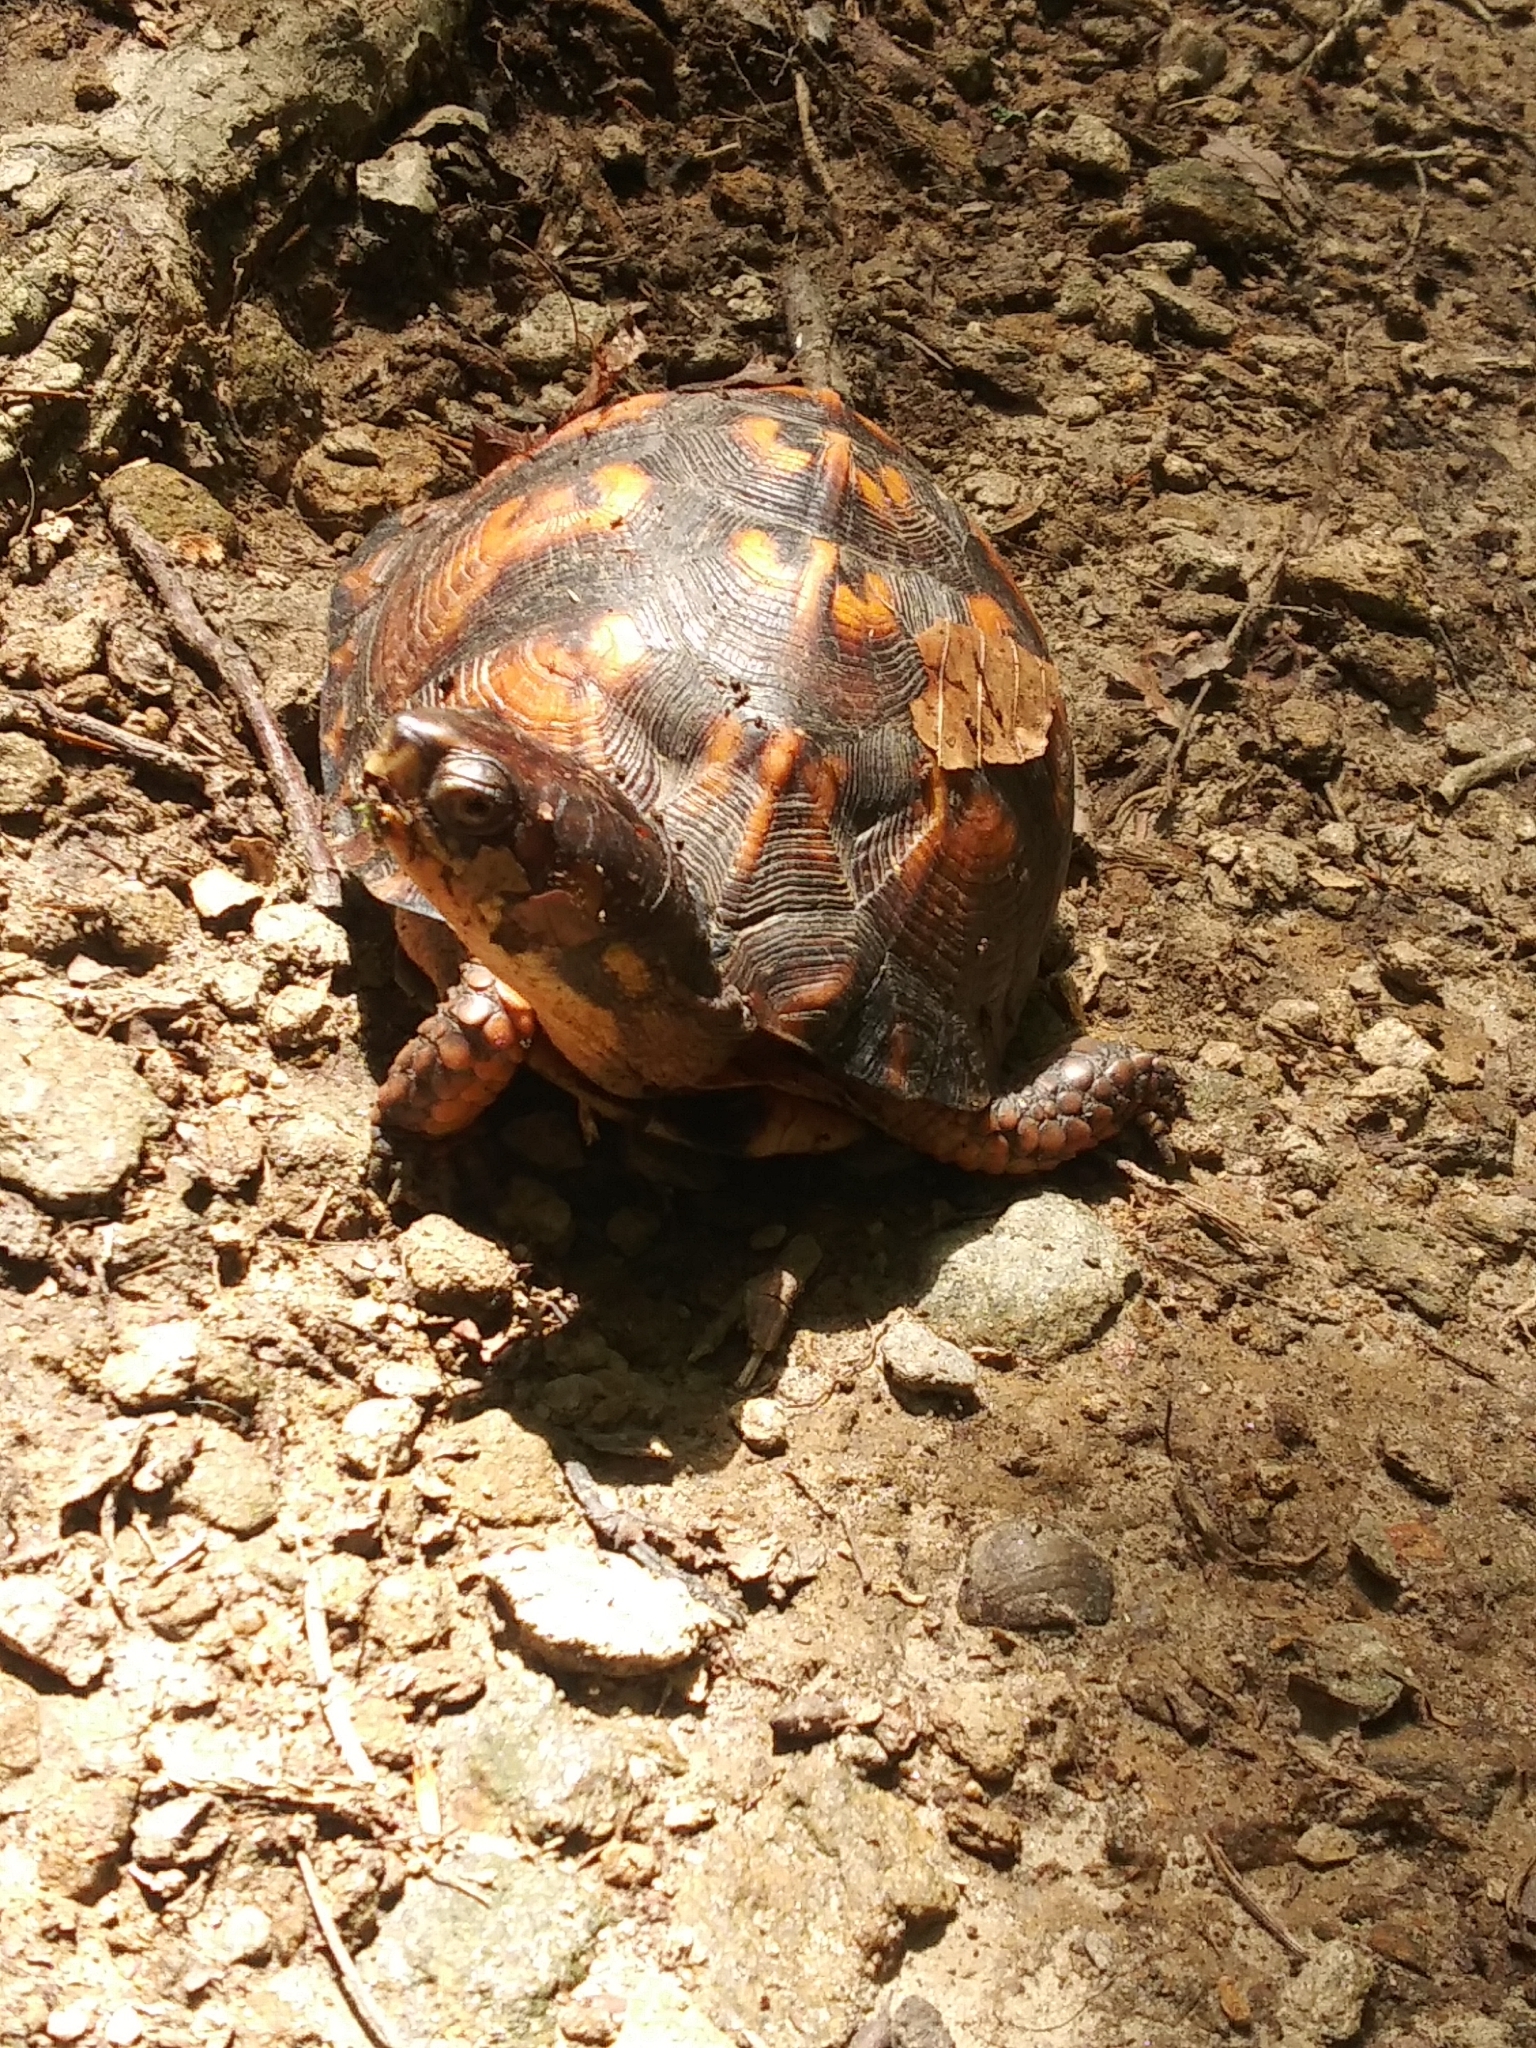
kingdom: Animalia
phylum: Chordata
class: Testudines
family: Emydidae
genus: Terrapene
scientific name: Terrapene carolina
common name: Common box turtle
